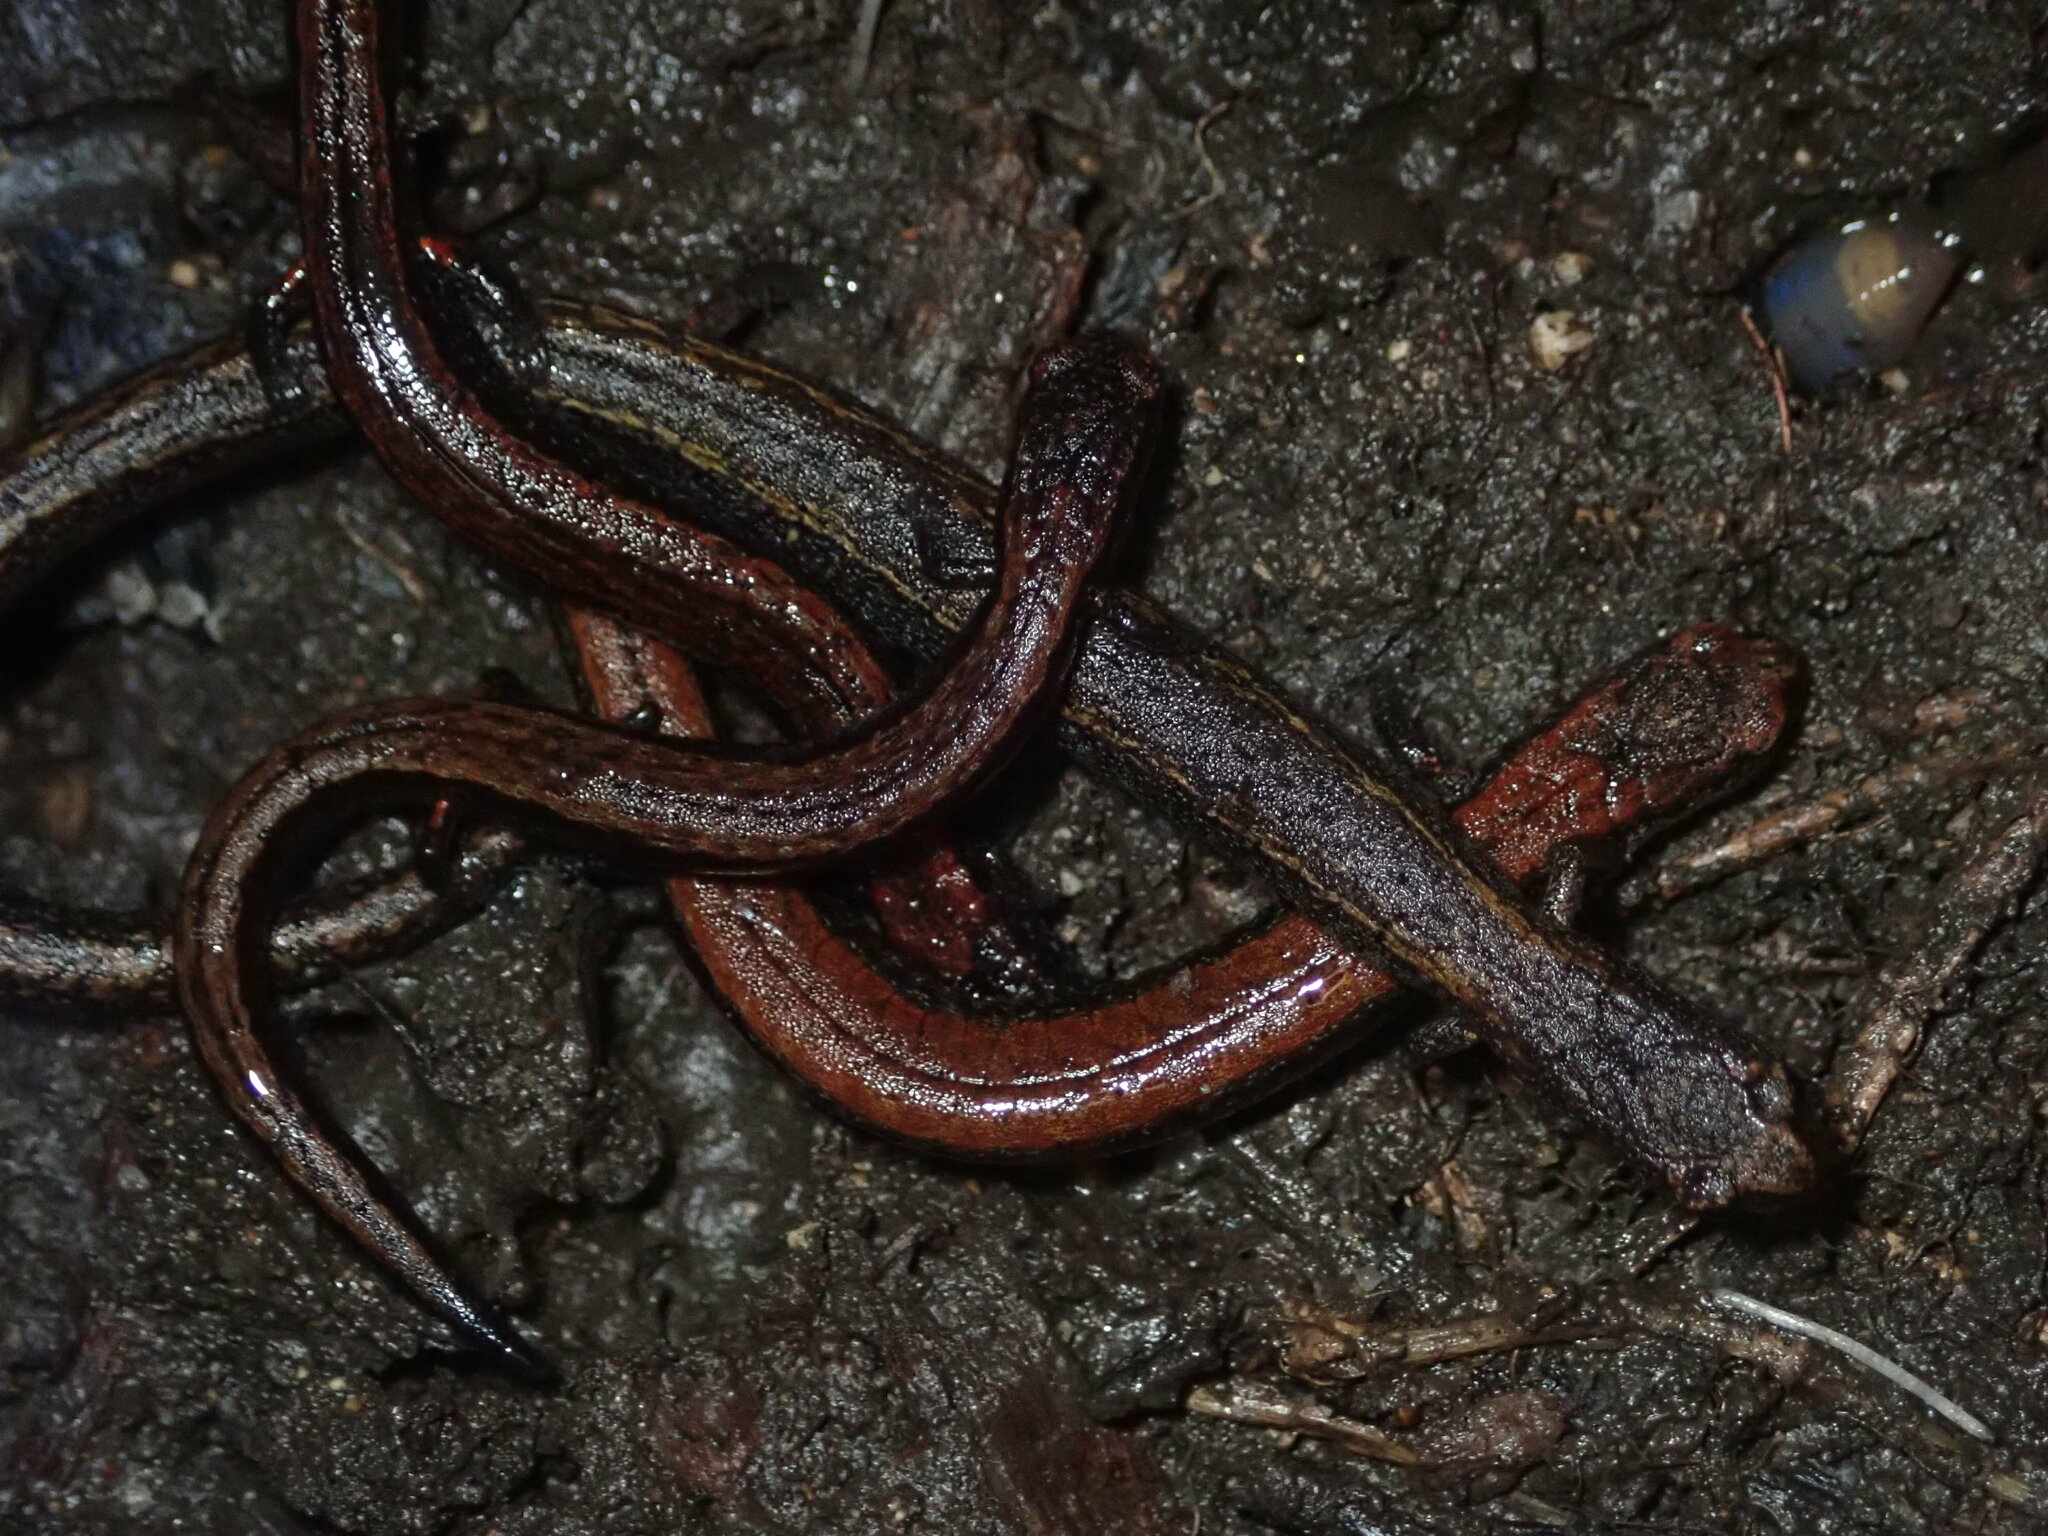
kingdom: Animalia
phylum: Chordata
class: Amphibia
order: Caudata
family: Plethodontidae
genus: Batrachoseps
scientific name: Batrachoseps attenuatus
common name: California slender salamander
